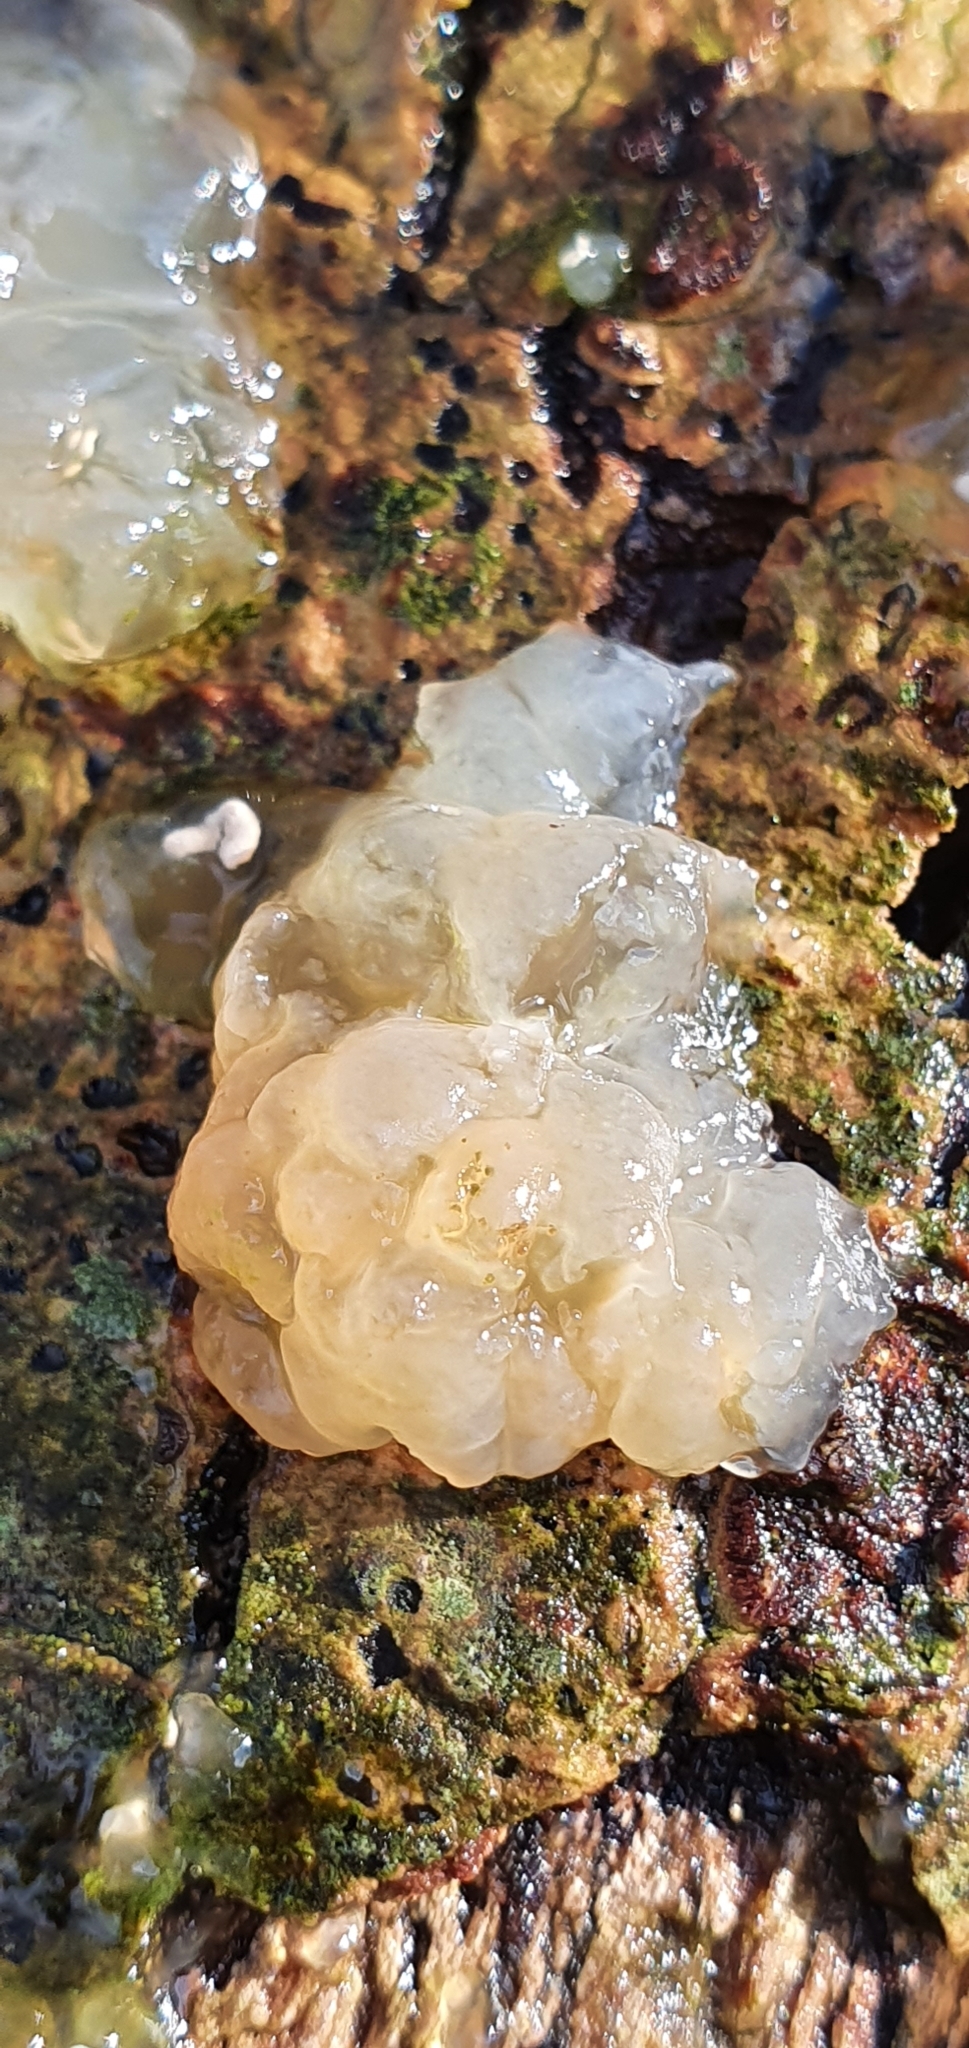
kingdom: Fungi
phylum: Basidiomycota
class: Agaricomycetes
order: Auriculariales
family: Hyaloriaceae
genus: Myxarium
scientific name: Myxarium nucleatum
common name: Crystal brain fungus
